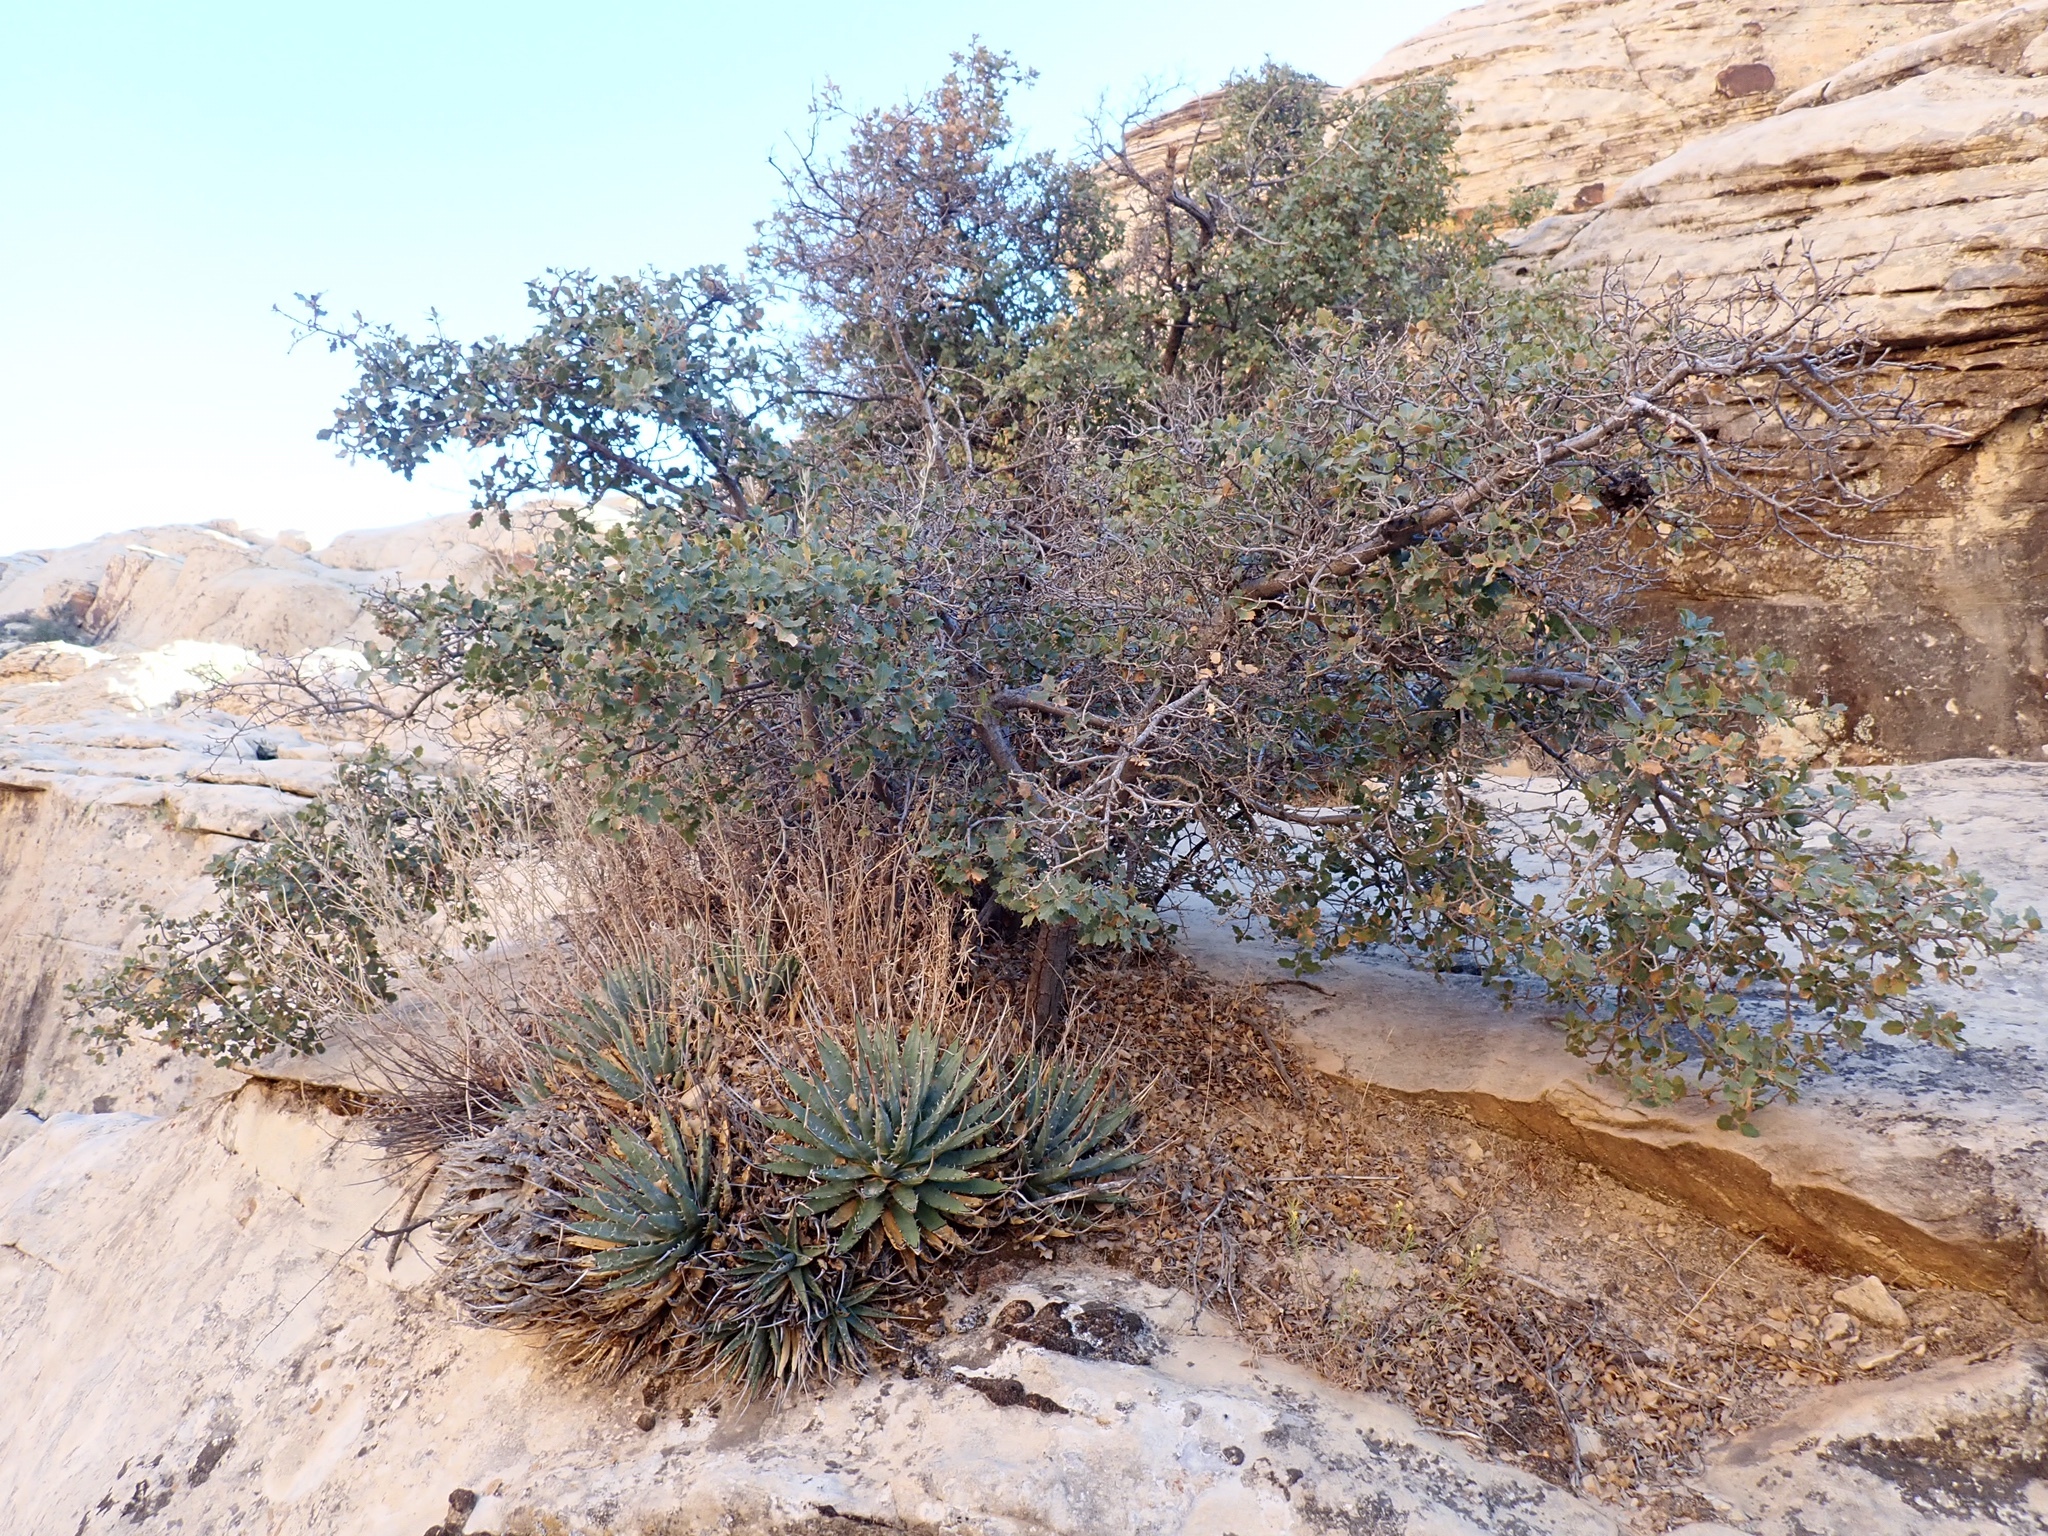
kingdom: Plantae
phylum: Tracheophyta
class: Liliopsida
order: Asparagales
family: Asparagaceae
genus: Agave
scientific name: Agave utahensis
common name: Utah agave
